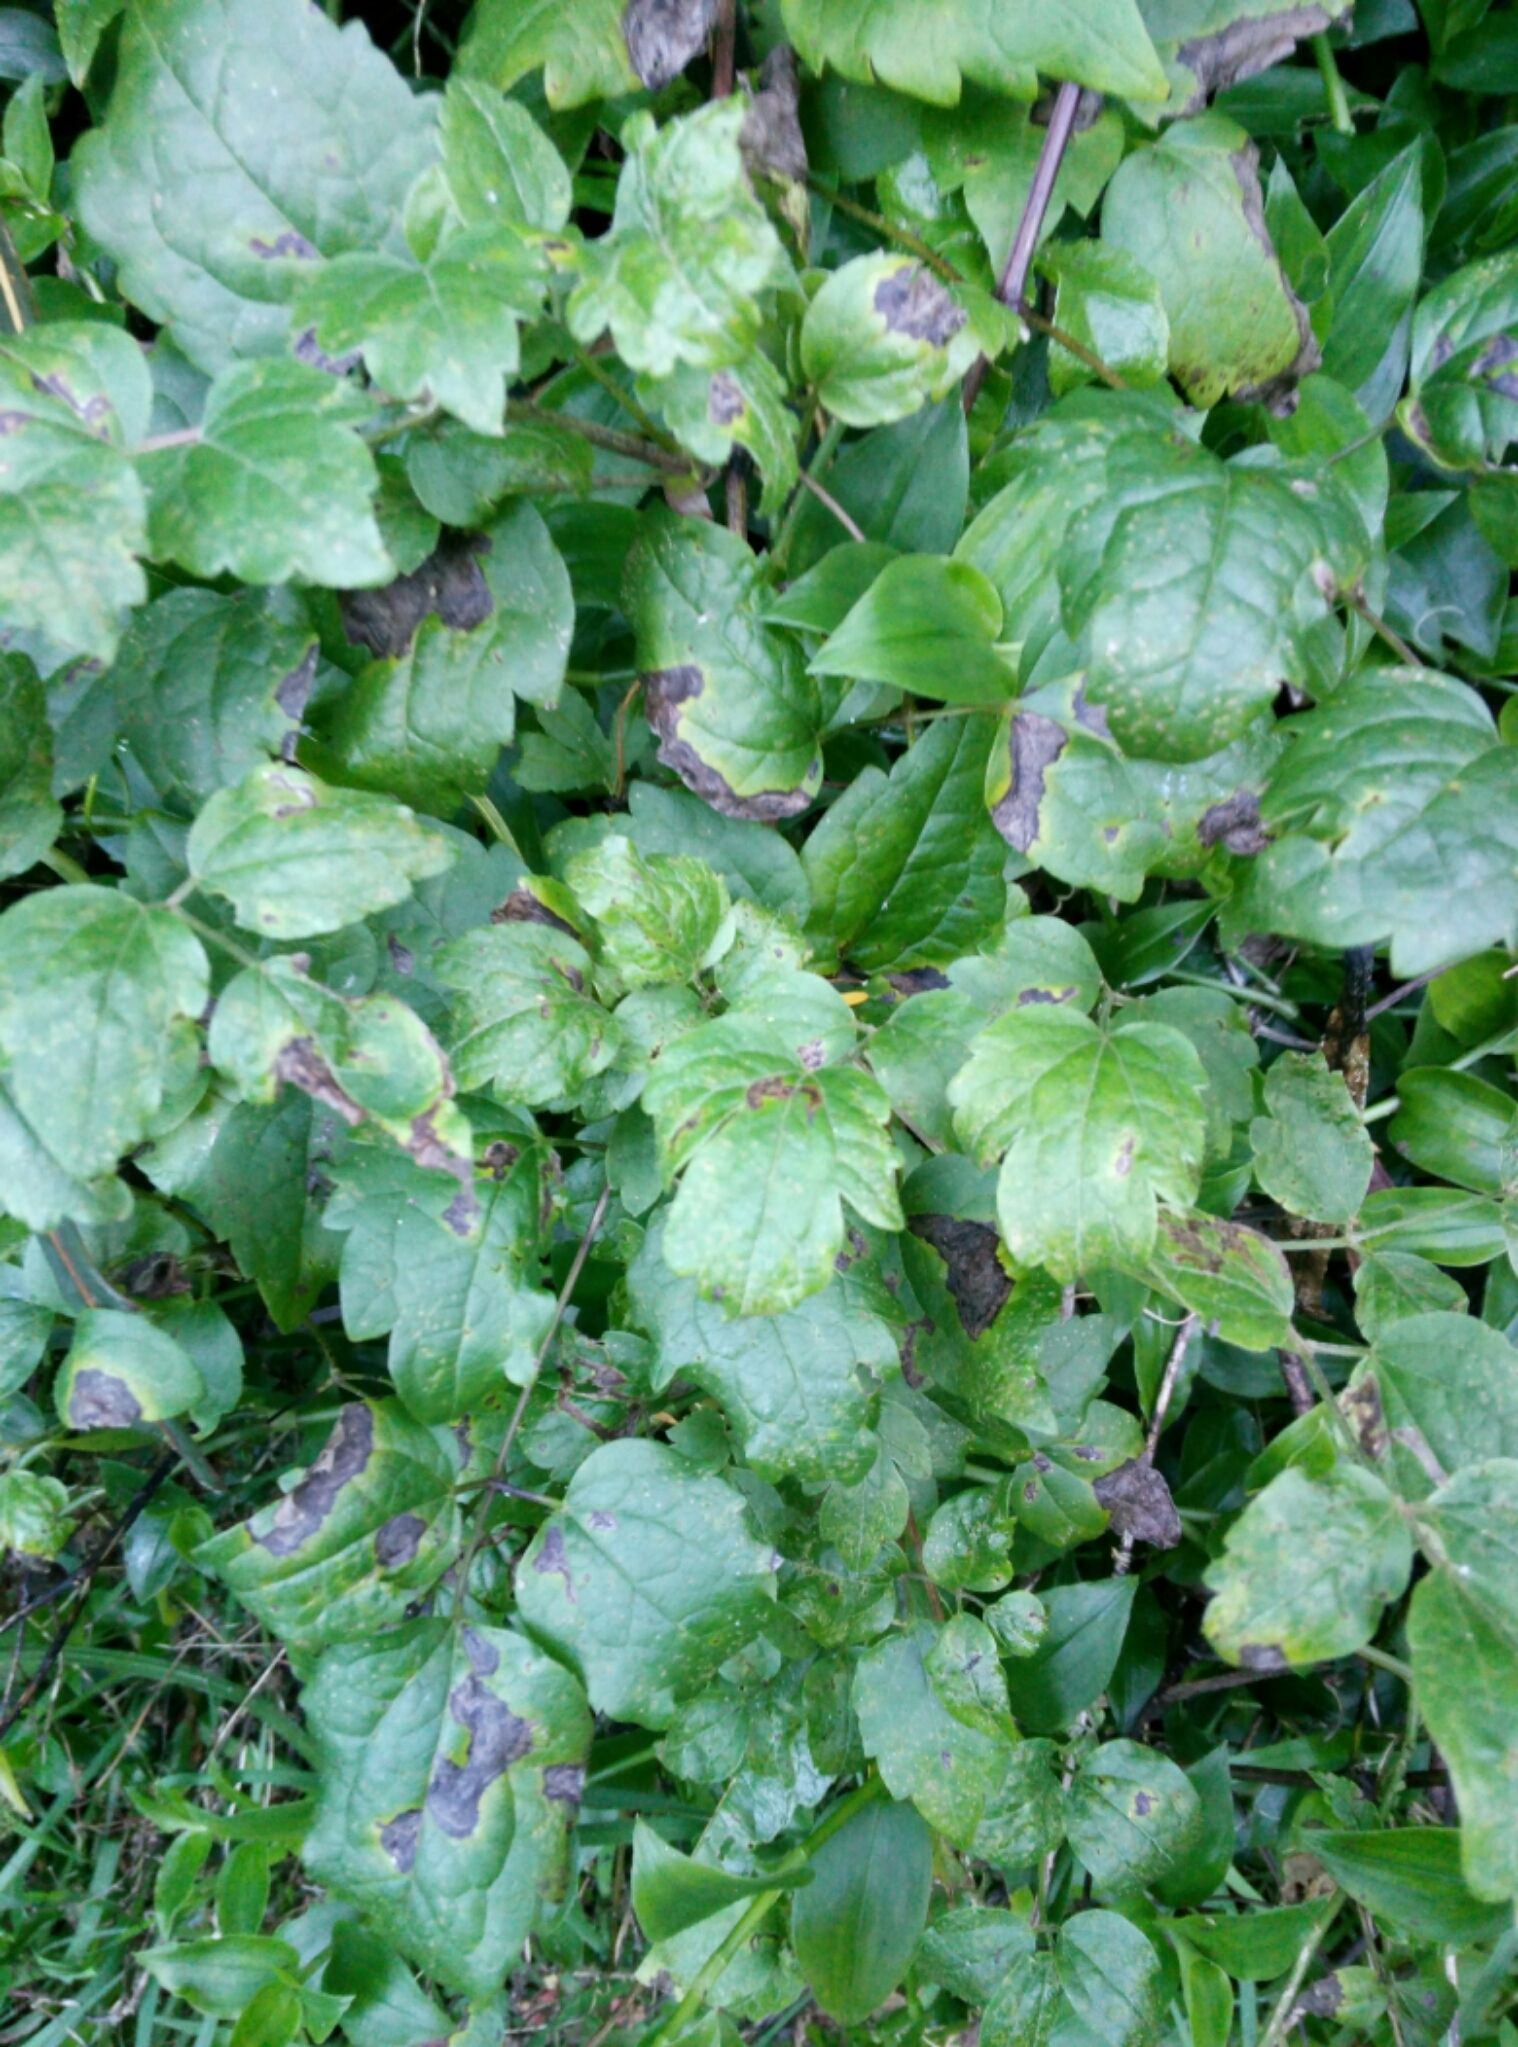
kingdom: Plantae
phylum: Tracheophyta
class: Magnoliopsida
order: Ranunculales
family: Ranunculaceae
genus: Clematis
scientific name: Clematis vitalba
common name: Evergreen clematis
